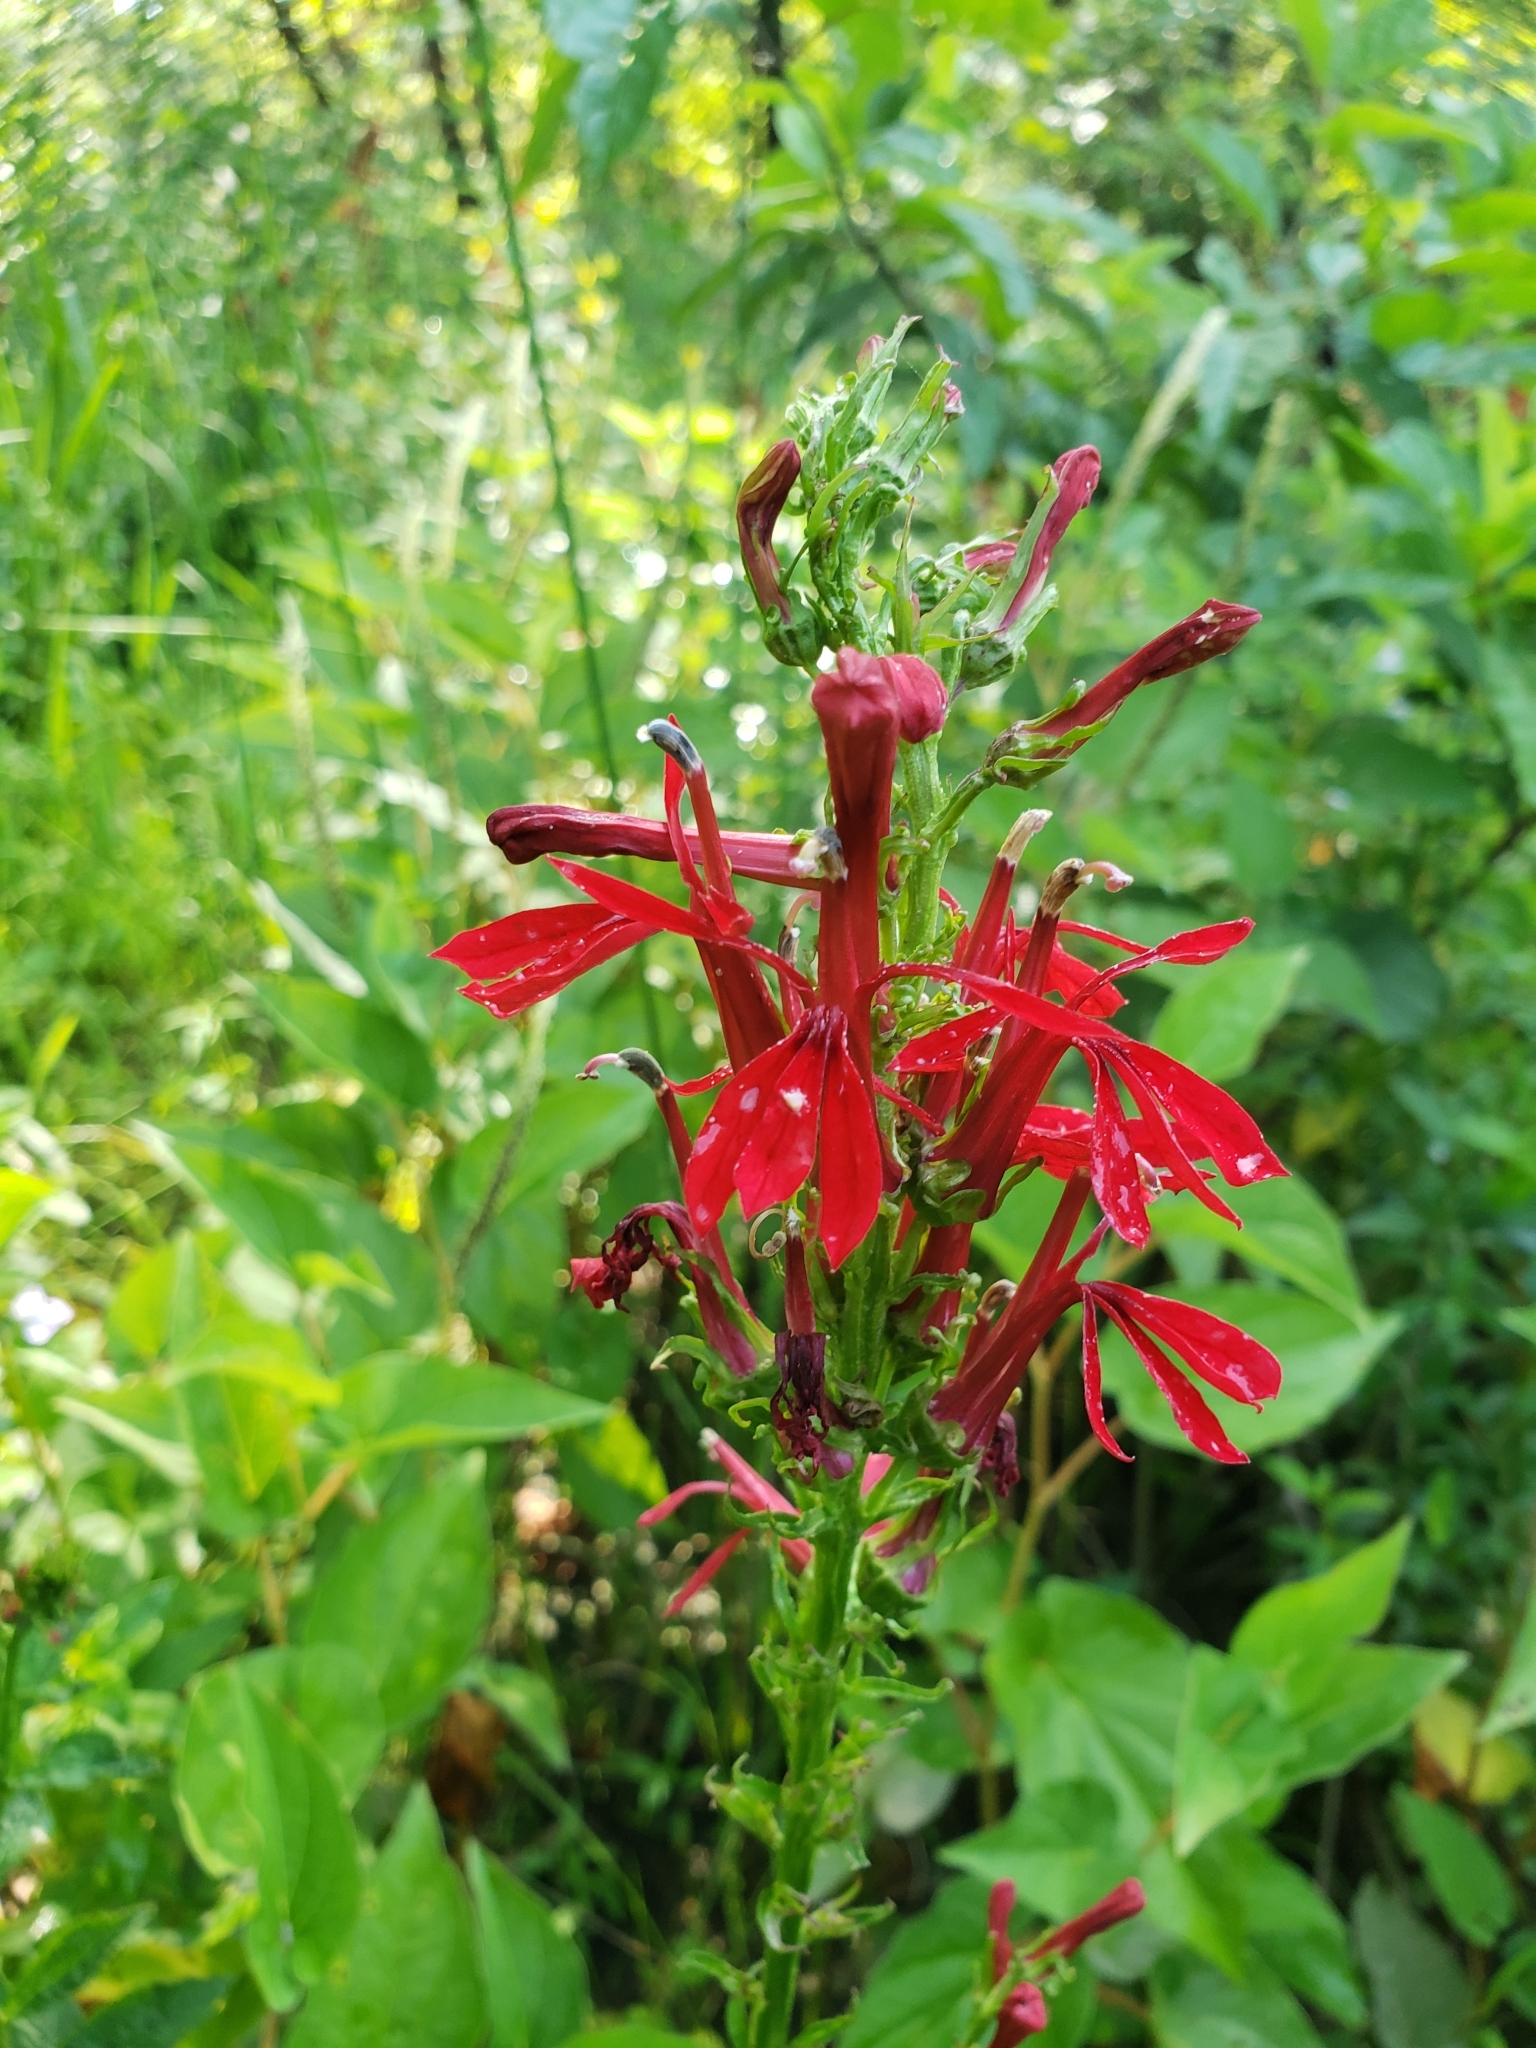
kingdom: Plantae
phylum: Tracheophyta
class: Magnoliopsida
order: Asterales
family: Campanulaceae
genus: Lobelia
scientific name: Lobelia cardinalis
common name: Cardinal flower
